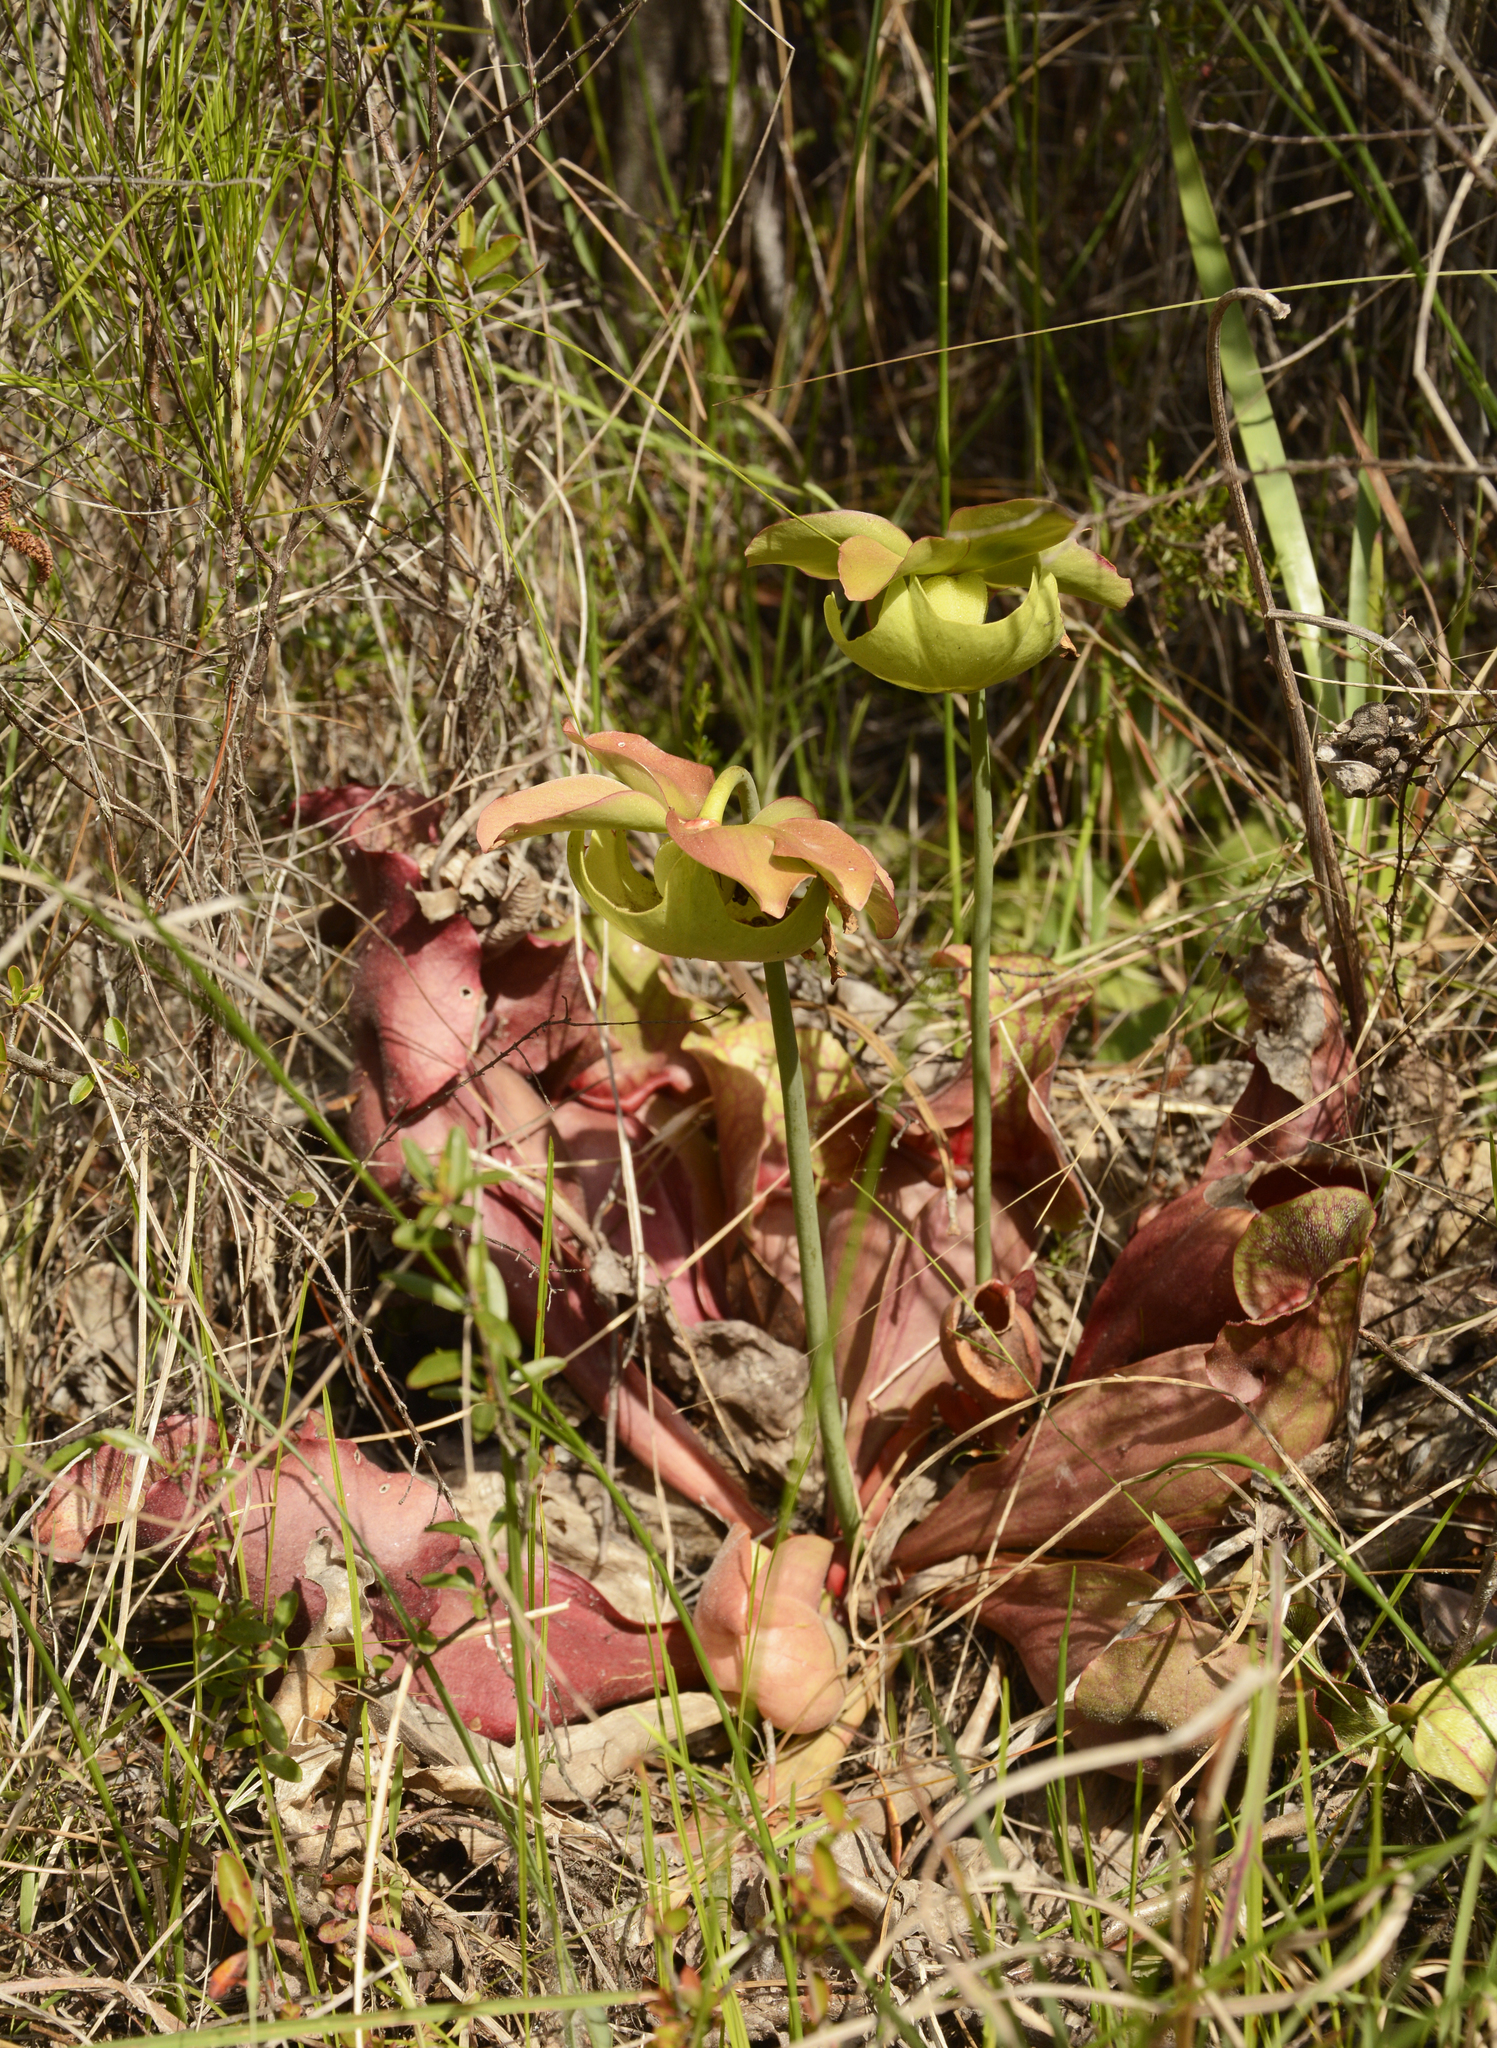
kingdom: Plantae
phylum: Tracheophyta
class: Magnoliopsida
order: Ericales
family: Sarraceniaceae
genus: Sarracenia
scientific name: Sarracenia rosea
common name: Pink pitcherplant
